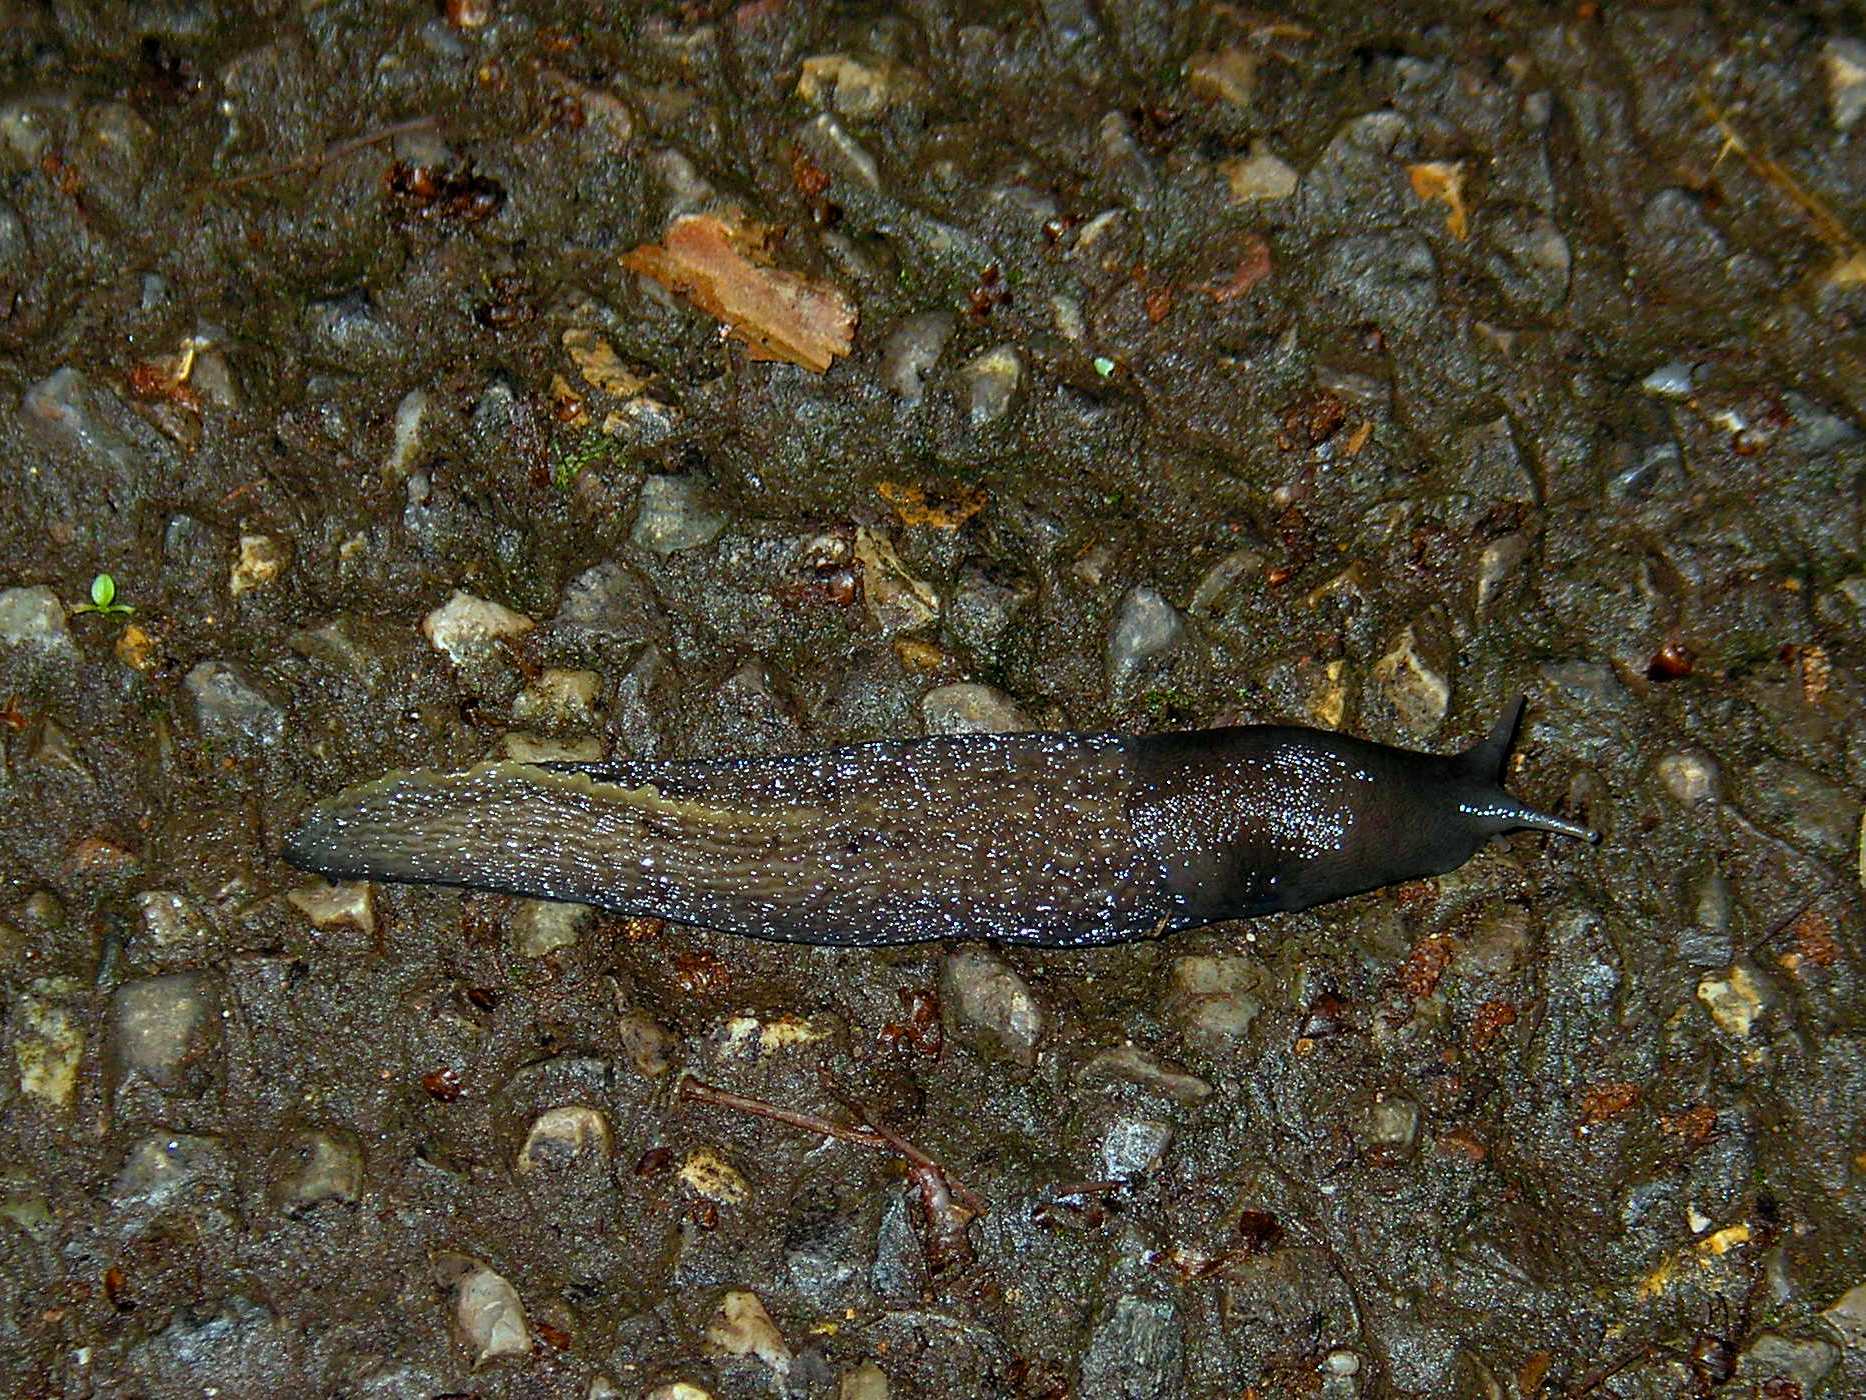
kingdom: Animalia
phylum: Mollusca
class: Gastropoda
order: Stylommatophora
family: Limacidae
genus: Limax
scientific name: Limax cinereoniger
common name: Ash-black slug
